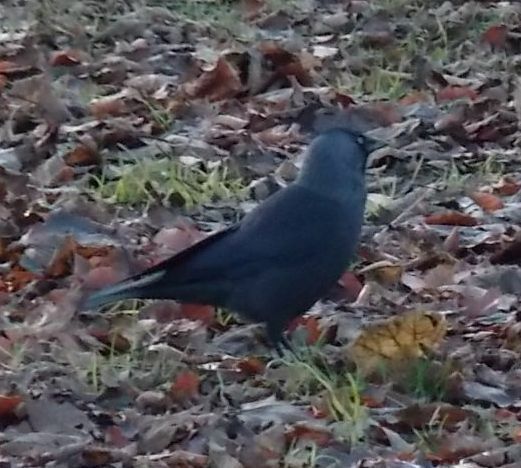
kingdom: Animalia
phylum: Chordata
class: Aves
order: Passeriformes
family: Corvidae
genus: Coloeus
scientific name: Coloeus monedula
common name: Western jackdaw
